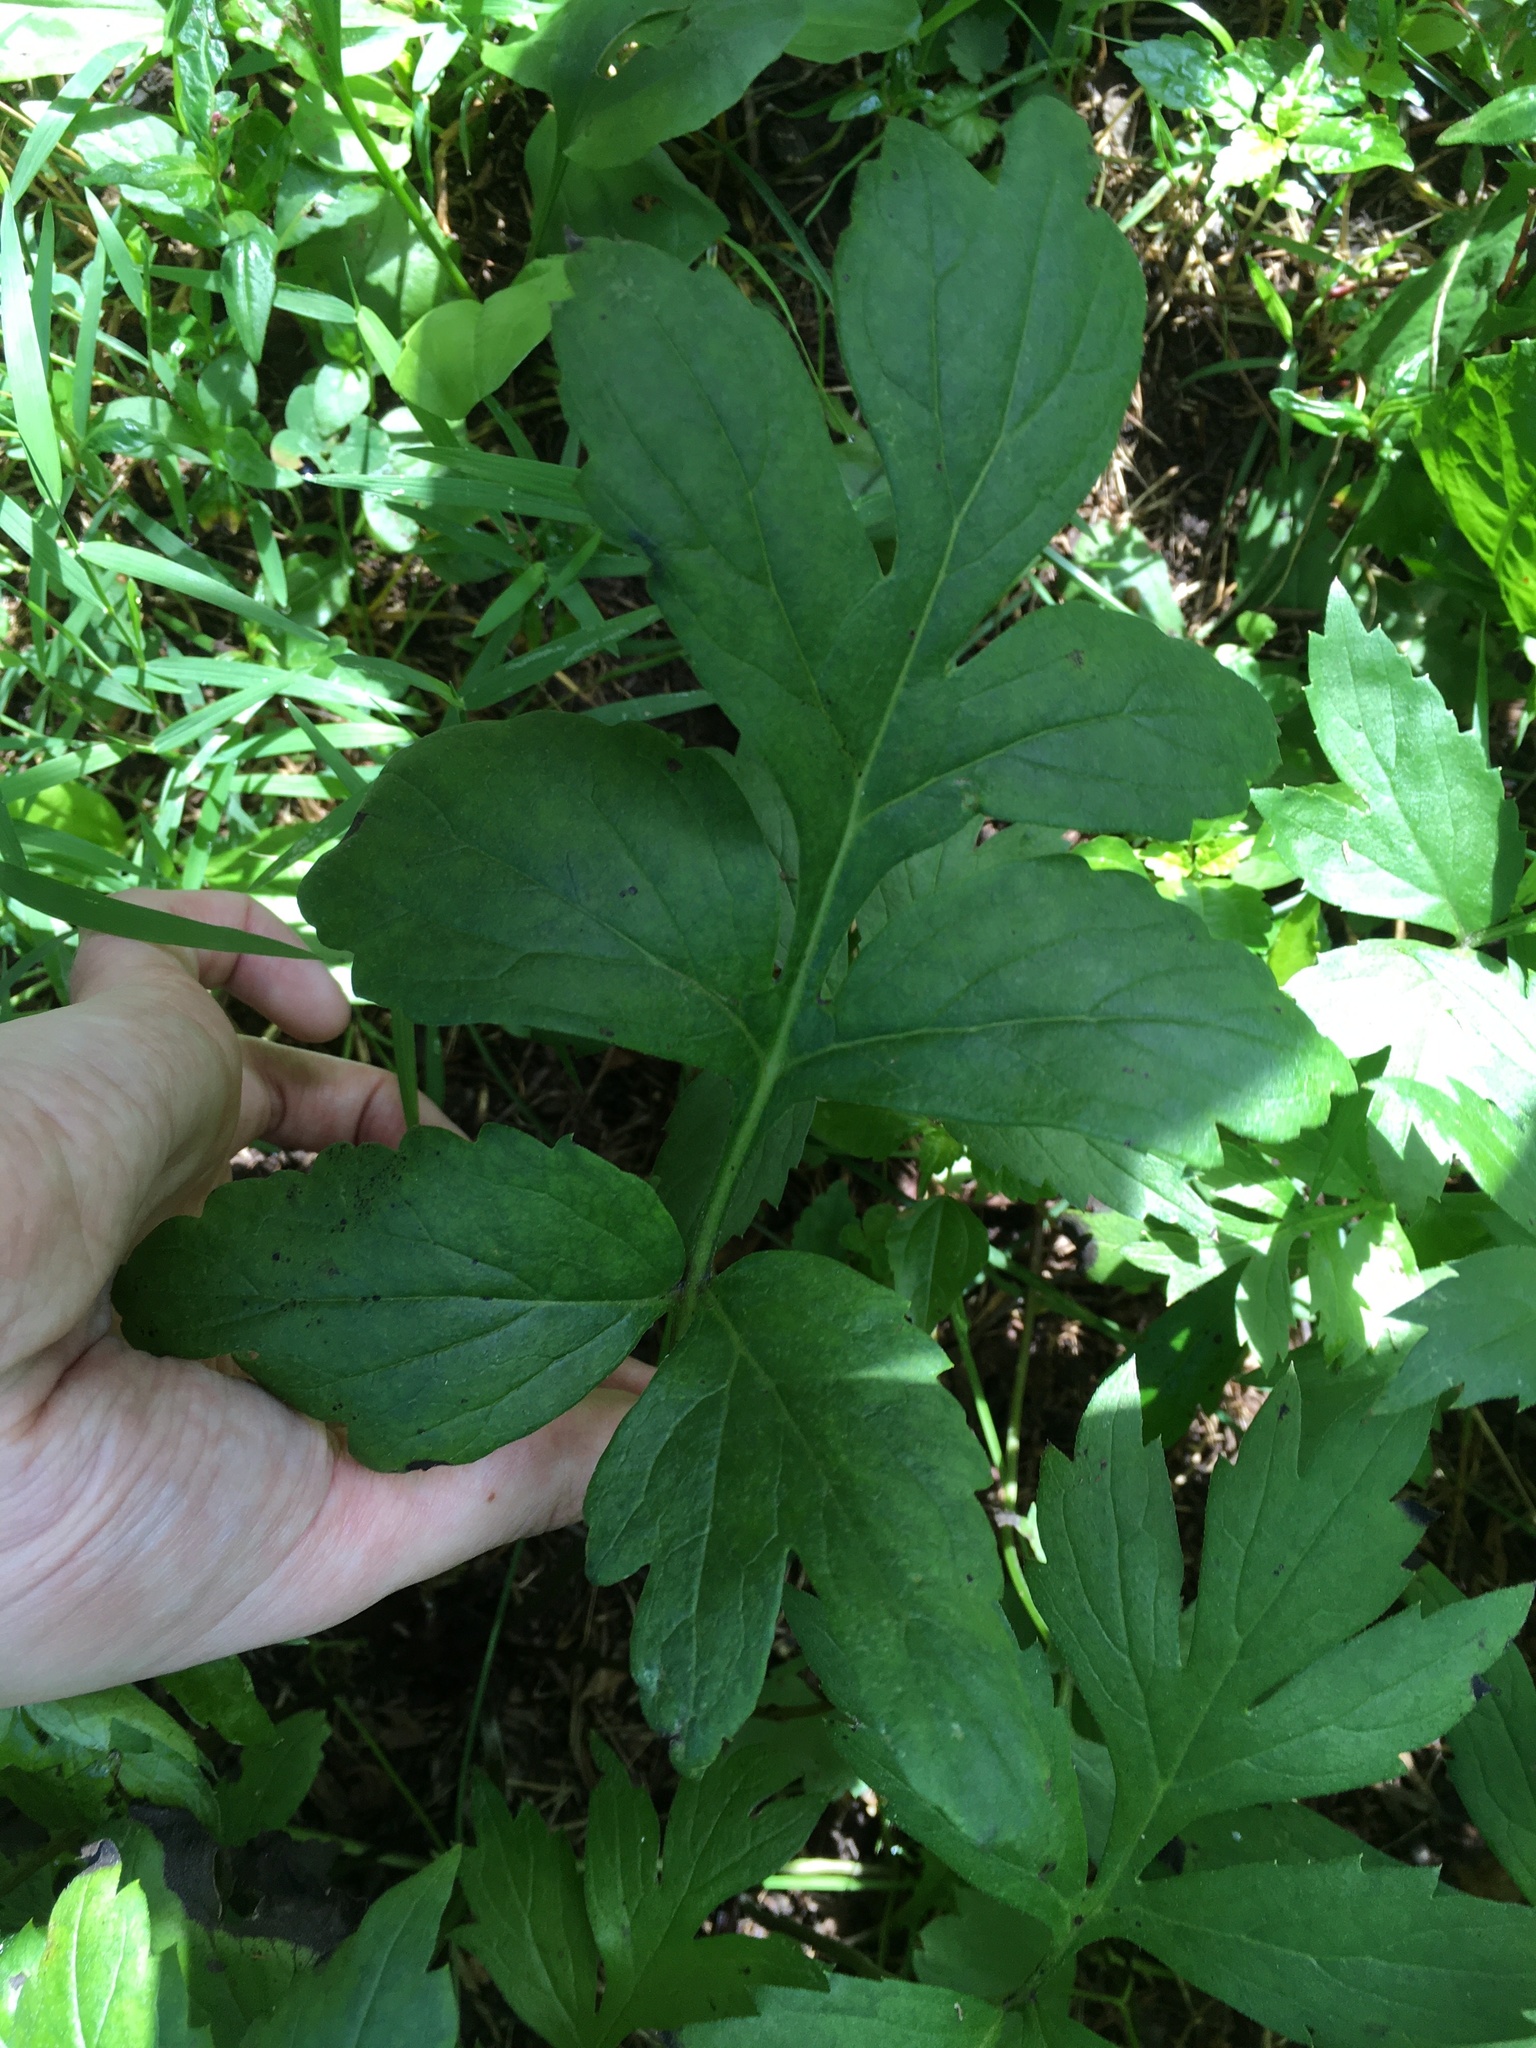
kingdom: Plantae
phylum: Tracheophyta
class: Magnoliopsida
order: Boraginales
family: Hydrophyllaceae
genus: Hydrophyllum
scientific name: Hydrophyllum virginianum
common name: Virginia waterleaf
